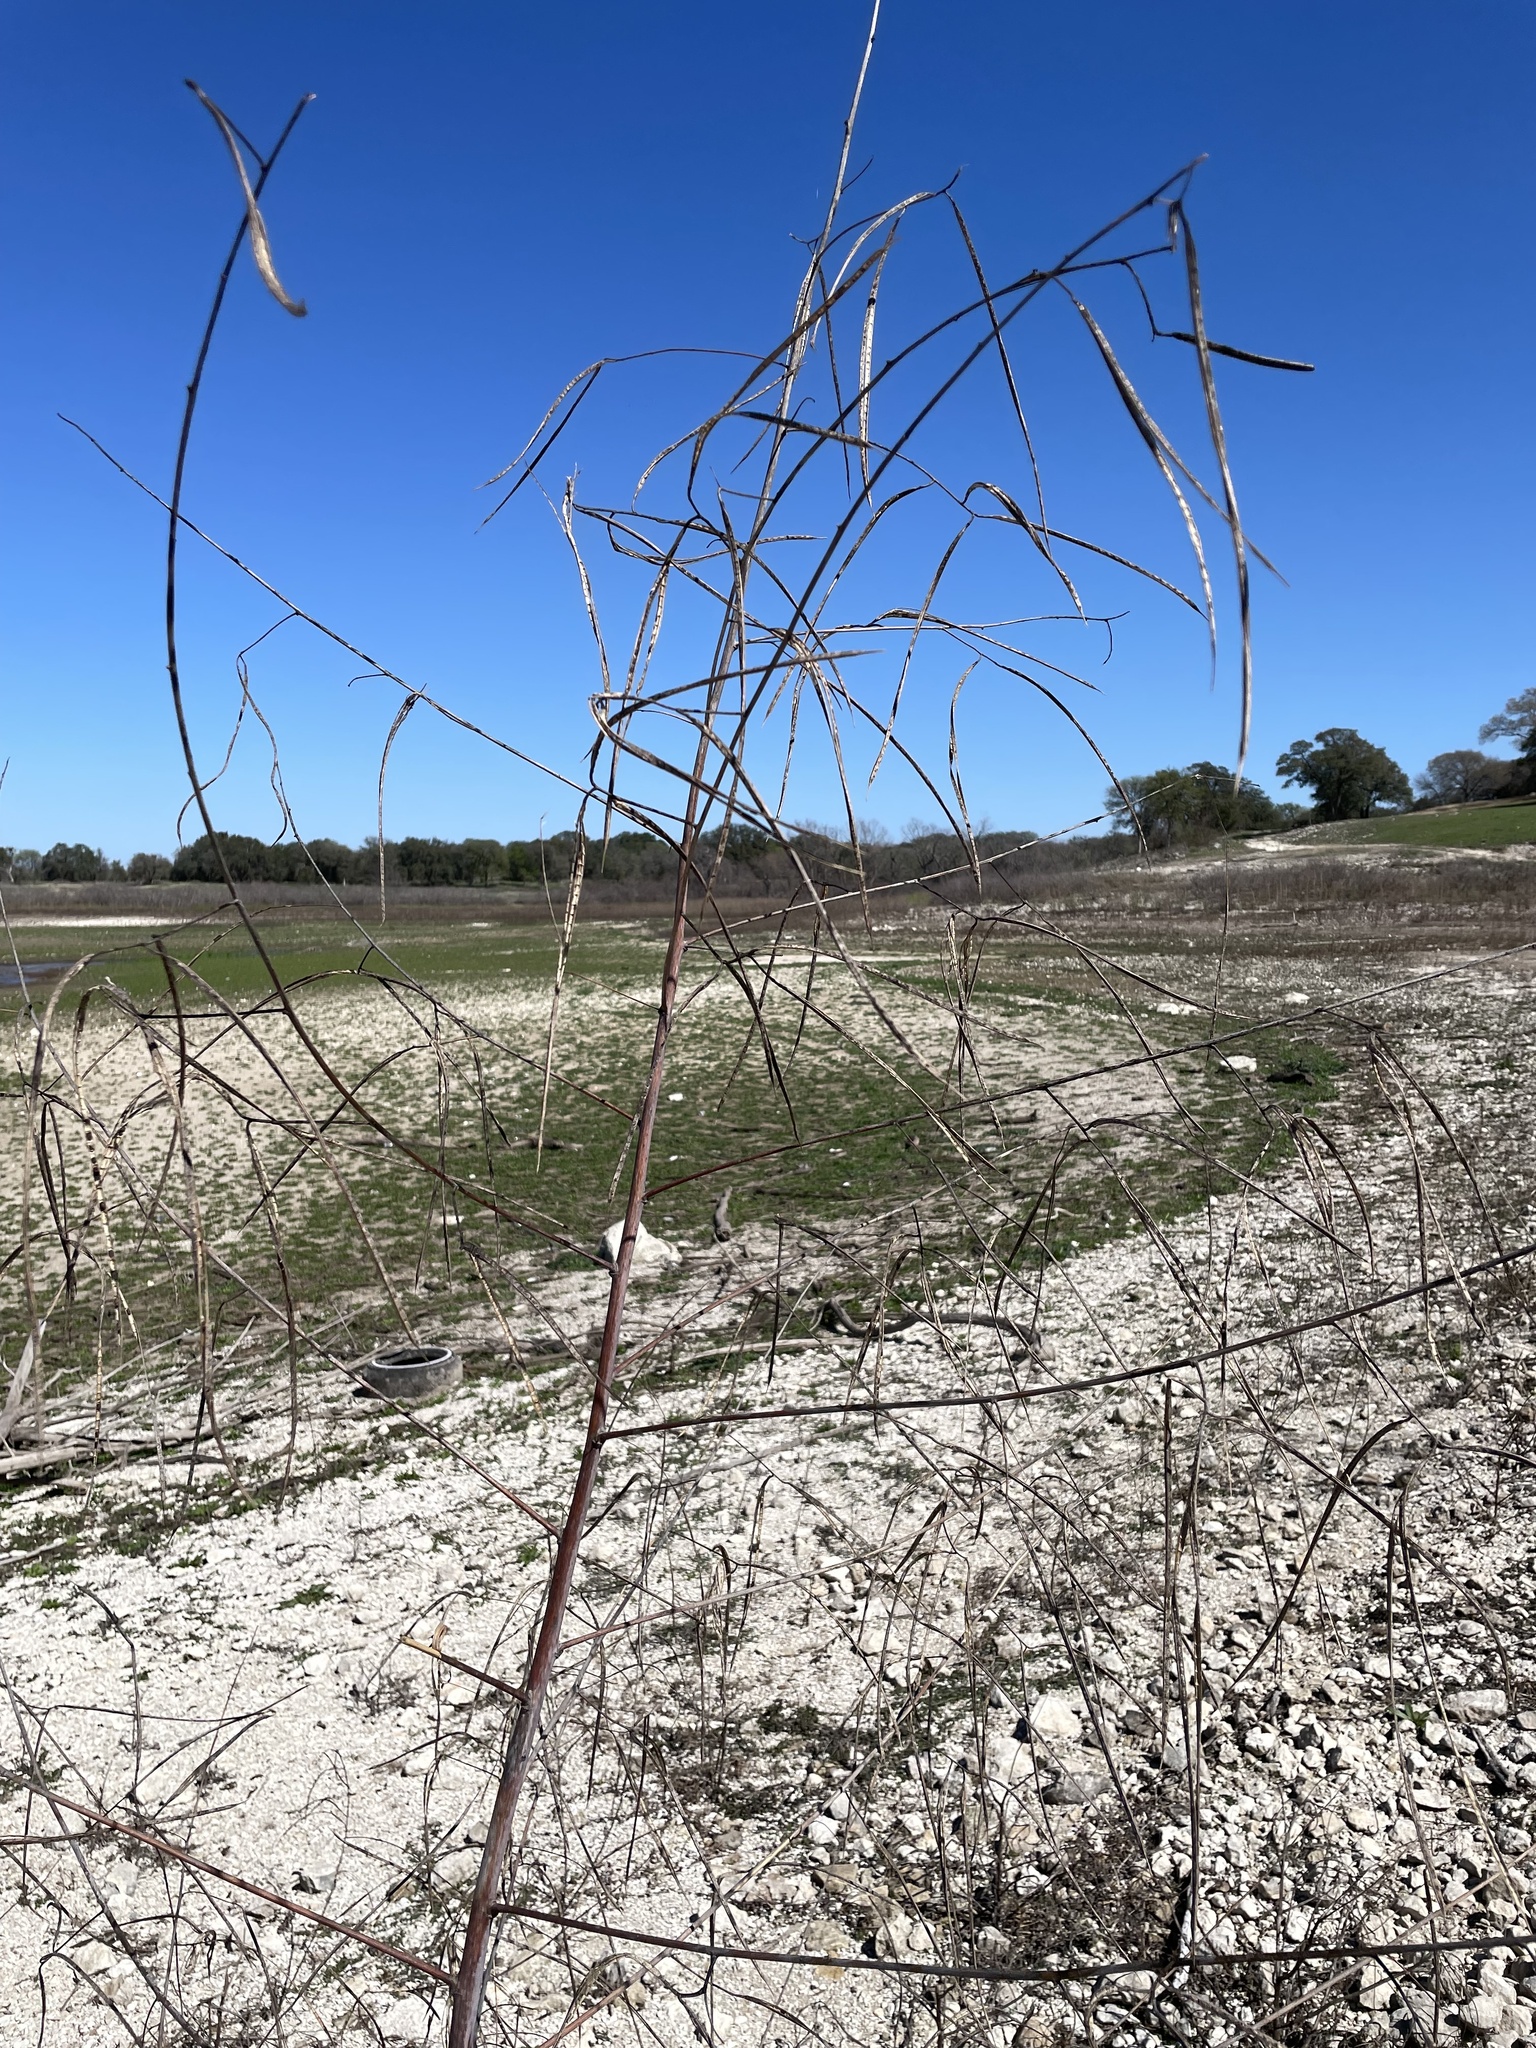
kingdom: Plantae
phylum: Tracheophyta
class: Magnoliopsida
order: Fabales
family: Fabaceae
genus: Sesbania
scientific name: Sesbania herbacea
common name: Bigpod sesbania
